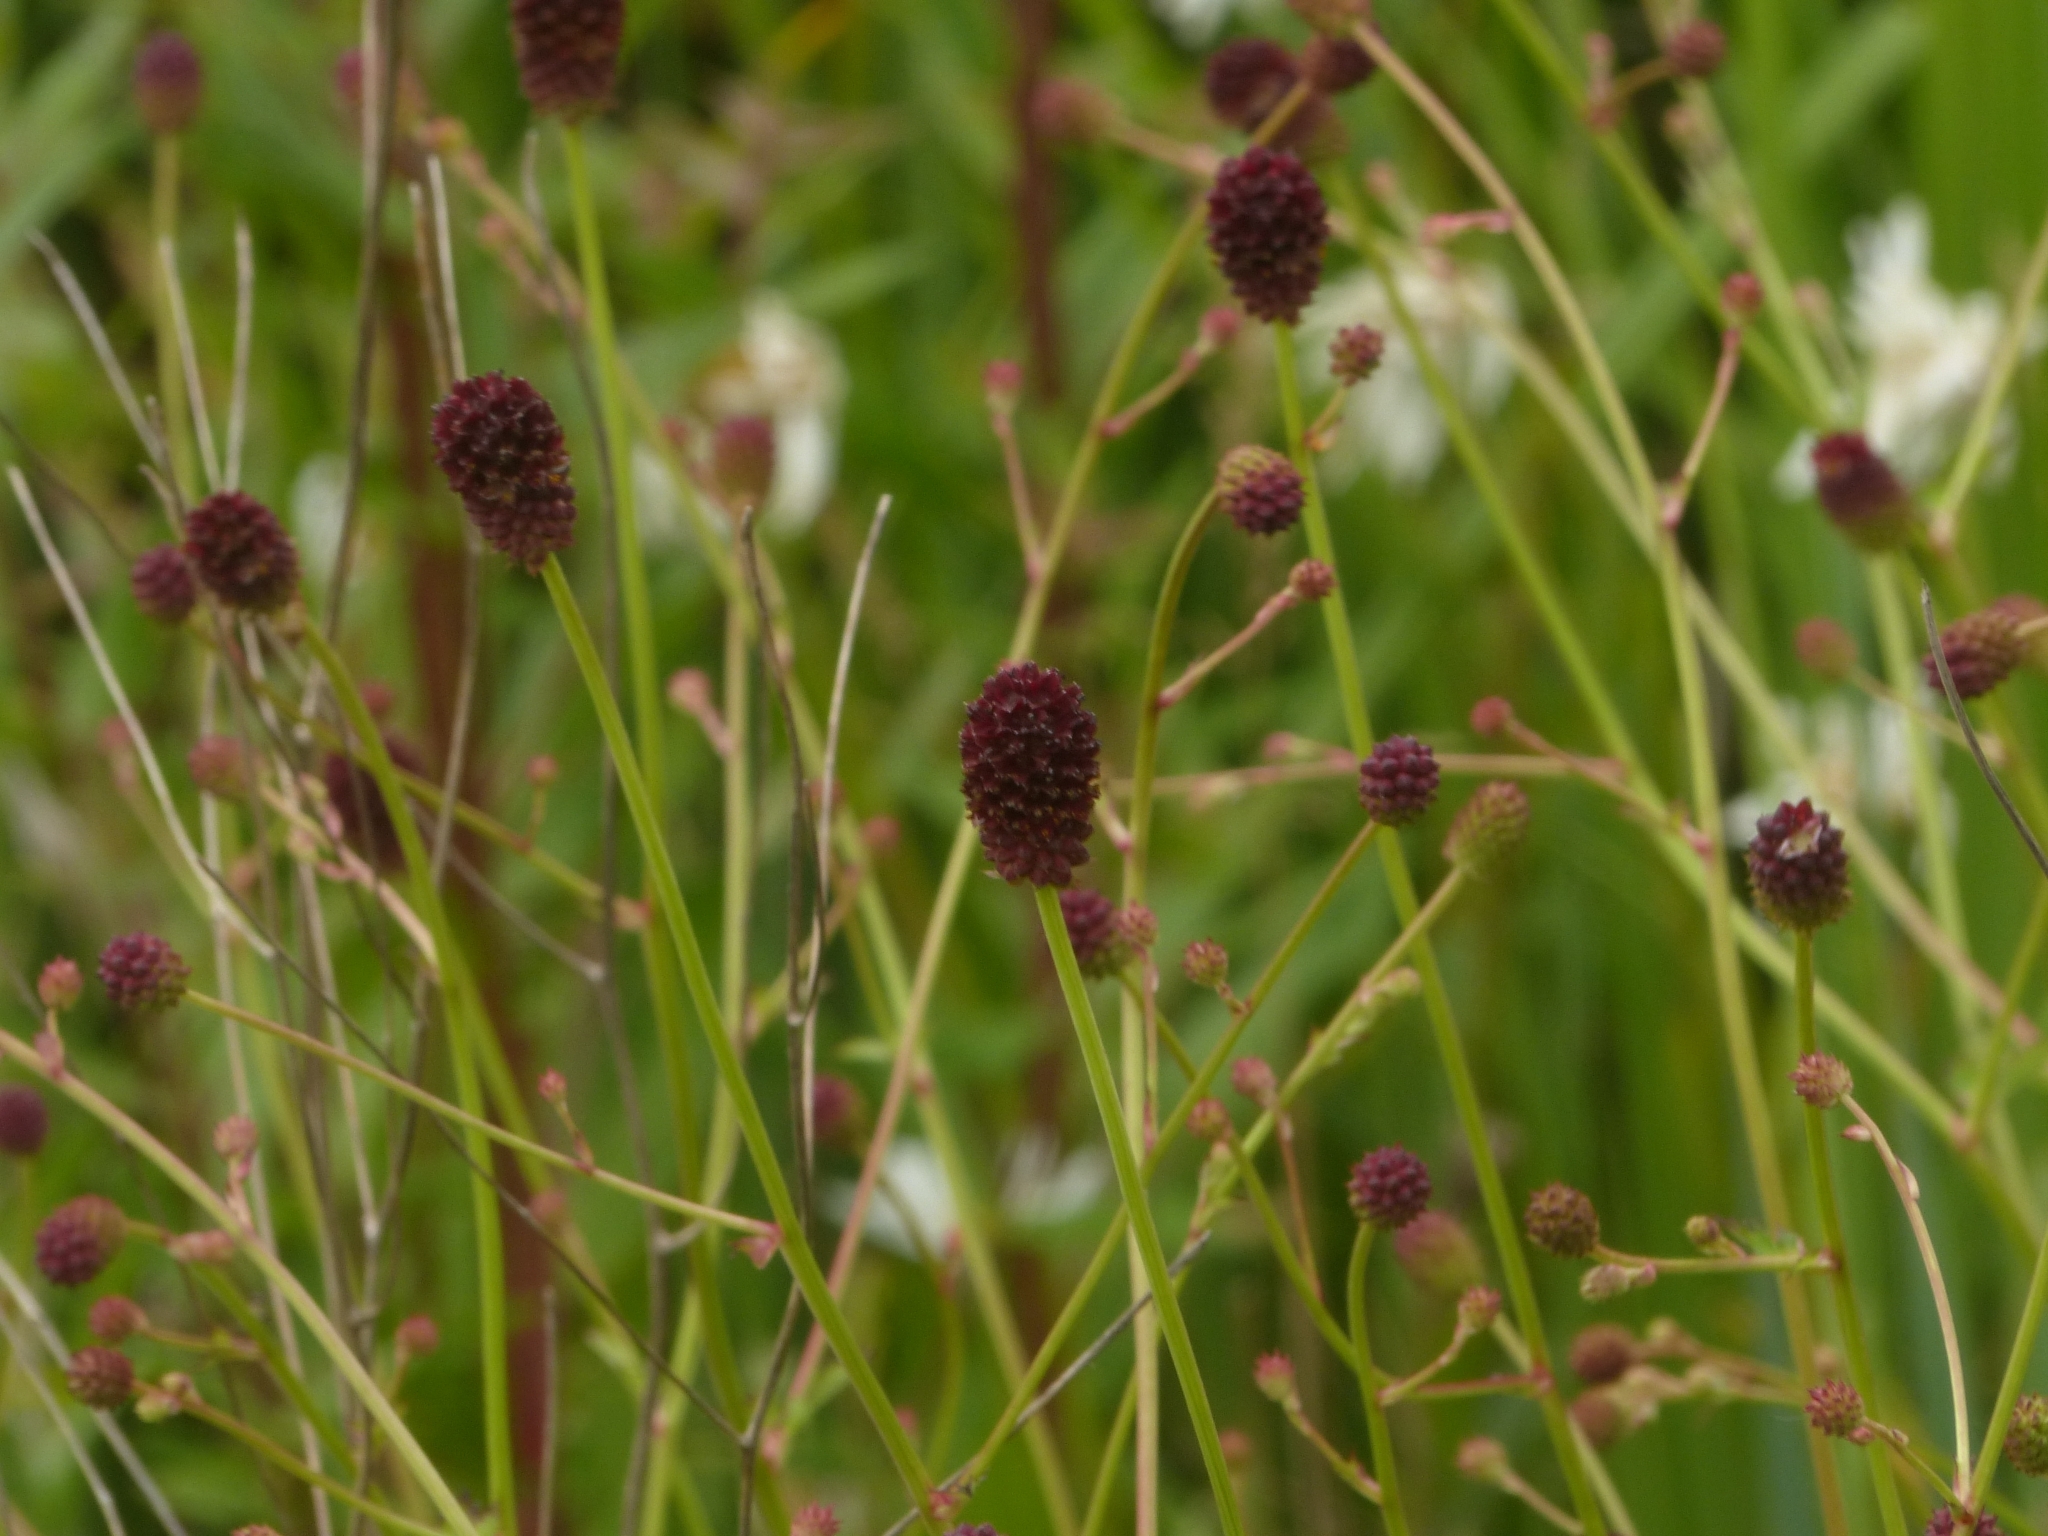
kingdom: Plantae
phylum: Tracheophyta
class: Magnoliopsida
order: Rosales
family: Rosaceae
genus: Sanguisorba
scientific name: Sanguisorba officinalis
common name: Great burnet
